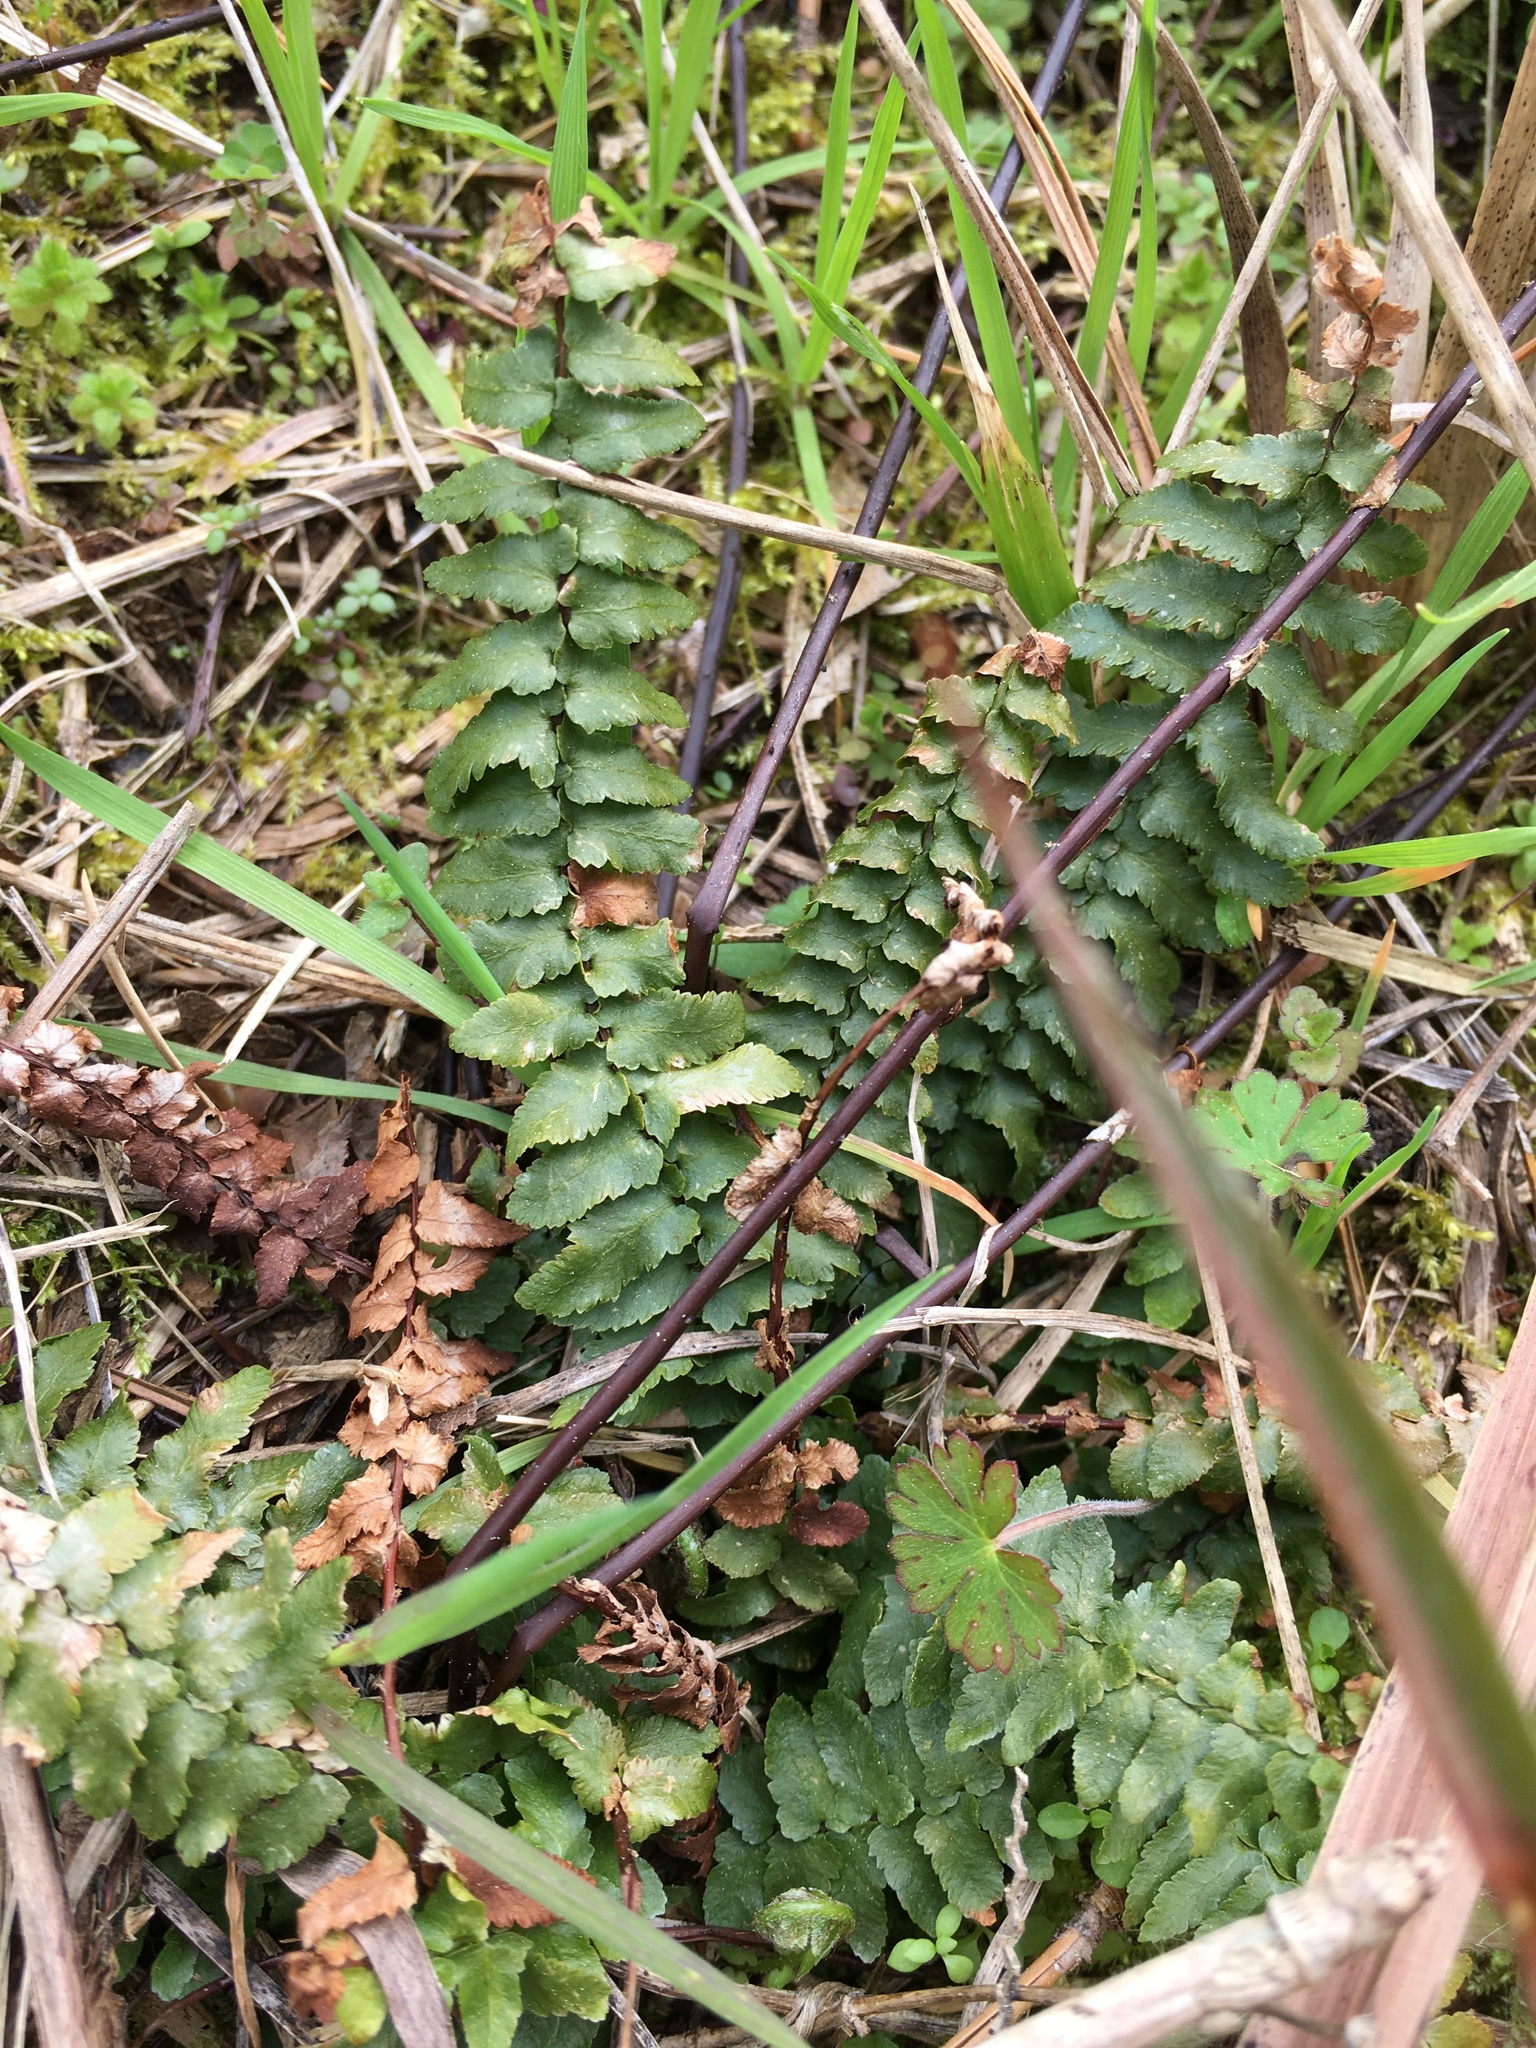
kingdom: Plantae
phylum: Tracheophyta
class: Polypodiopsida
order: Polypodiales
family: Aspleniaceae
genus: Asplenium
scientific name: Asplenium platyneuron
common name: Ebony spleenwort
